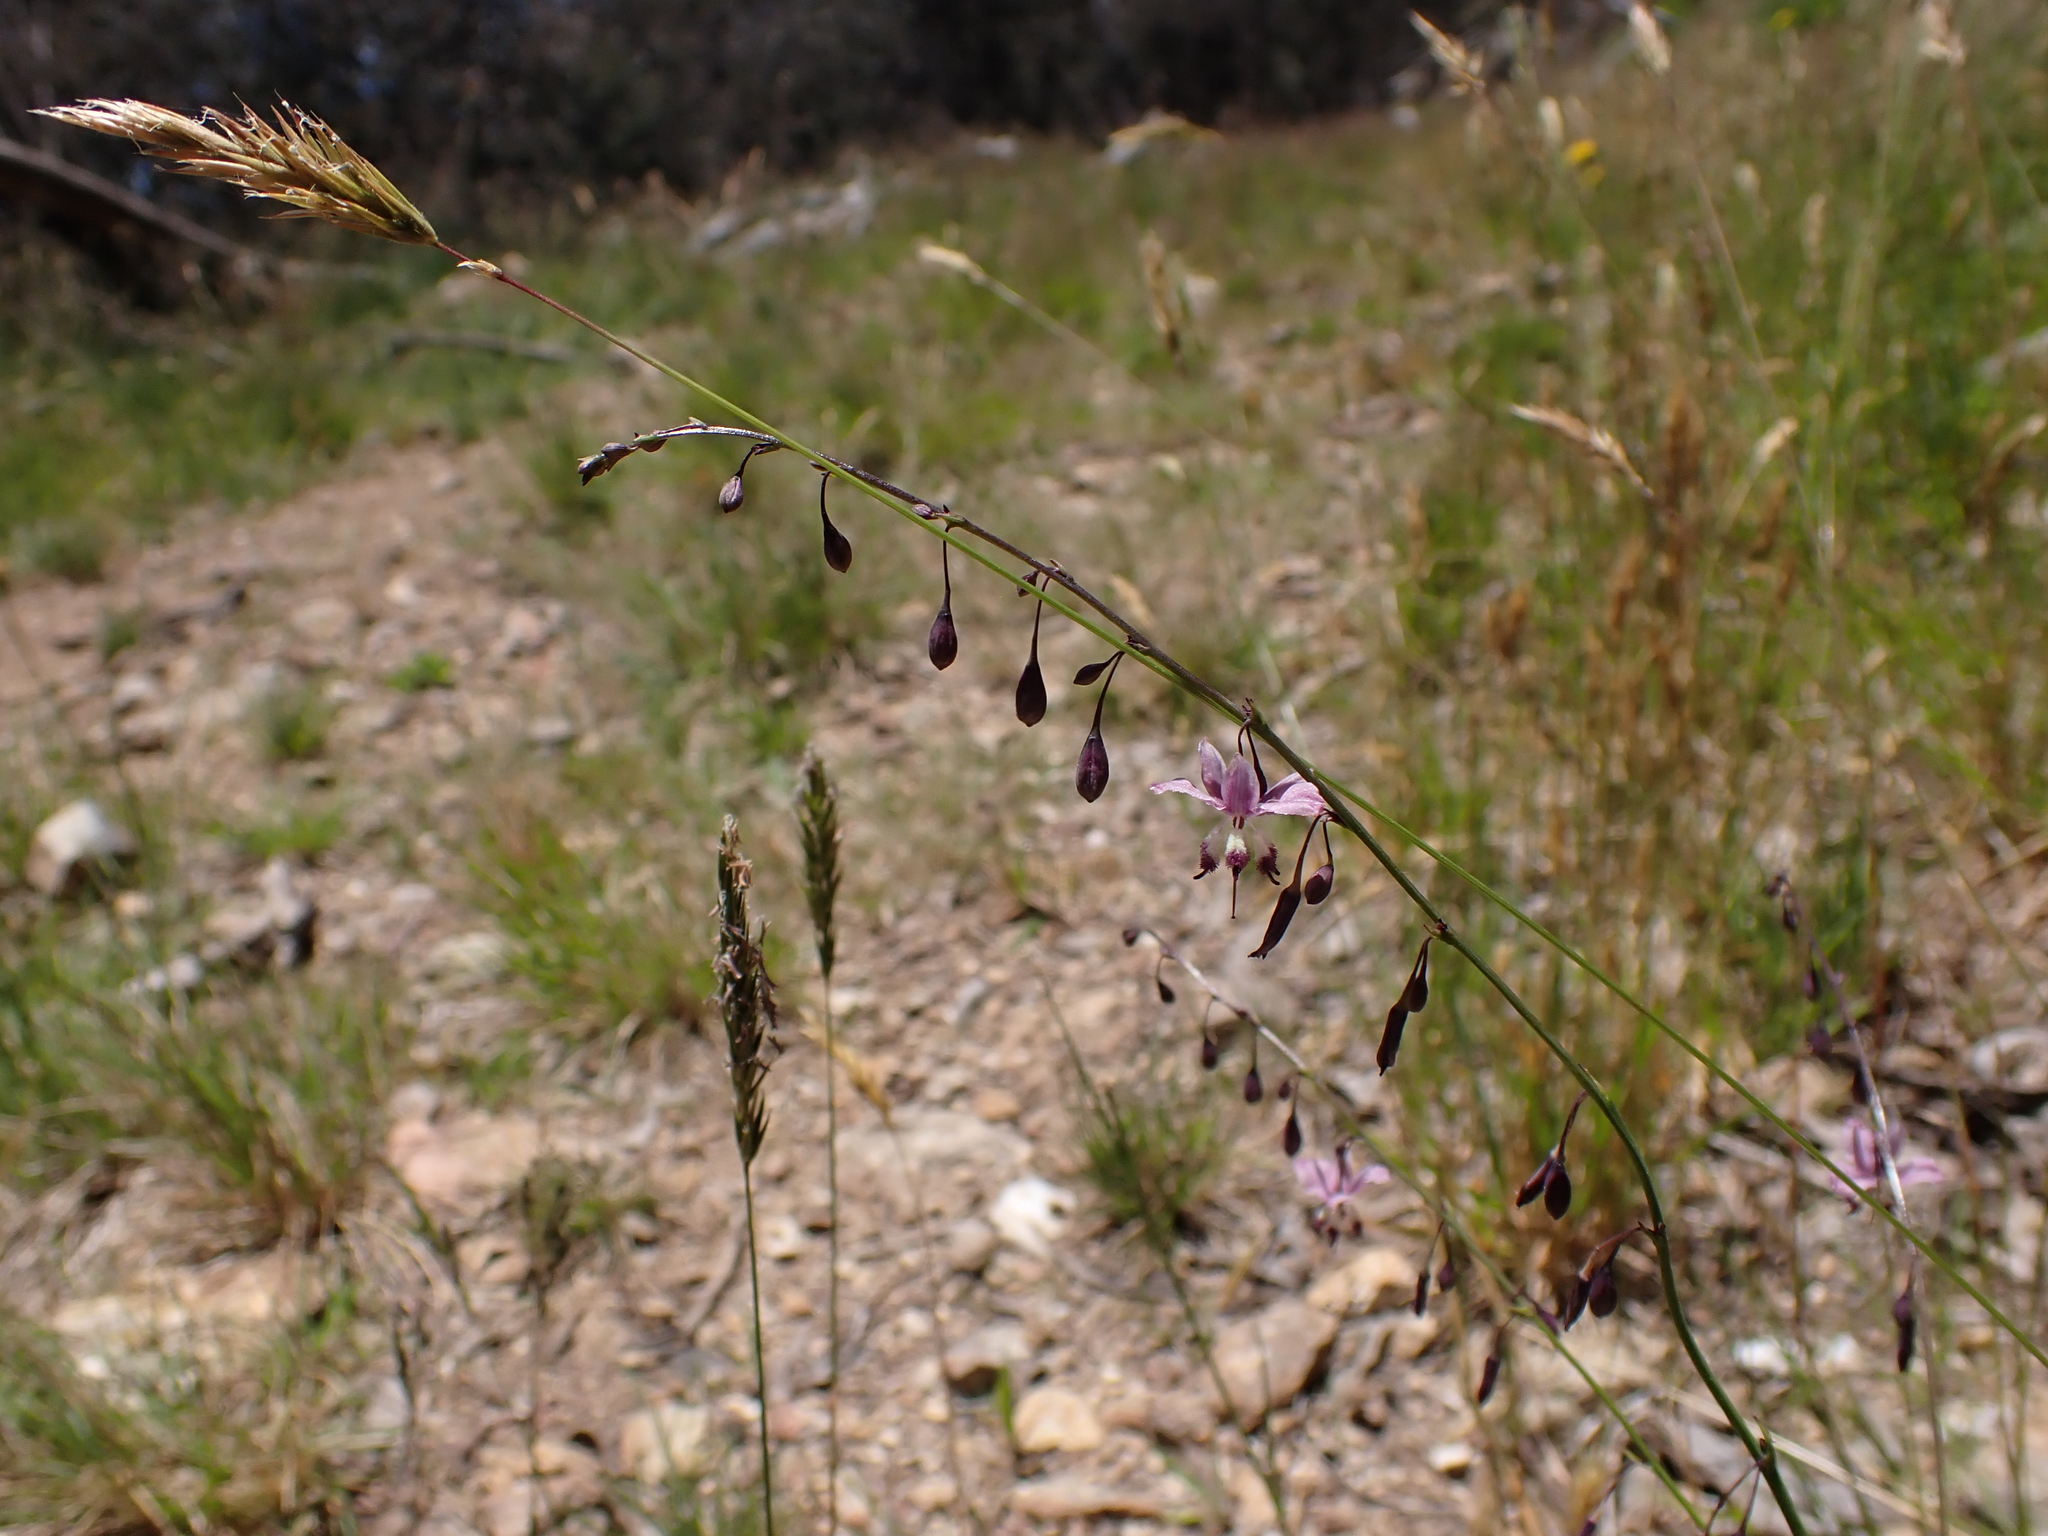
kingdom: Plantae
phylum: Tracheophyta
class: Liliopsida
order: Asparagales
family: Asparagaceae
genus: Arthropodium
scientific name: Arthropodium milleflorum
